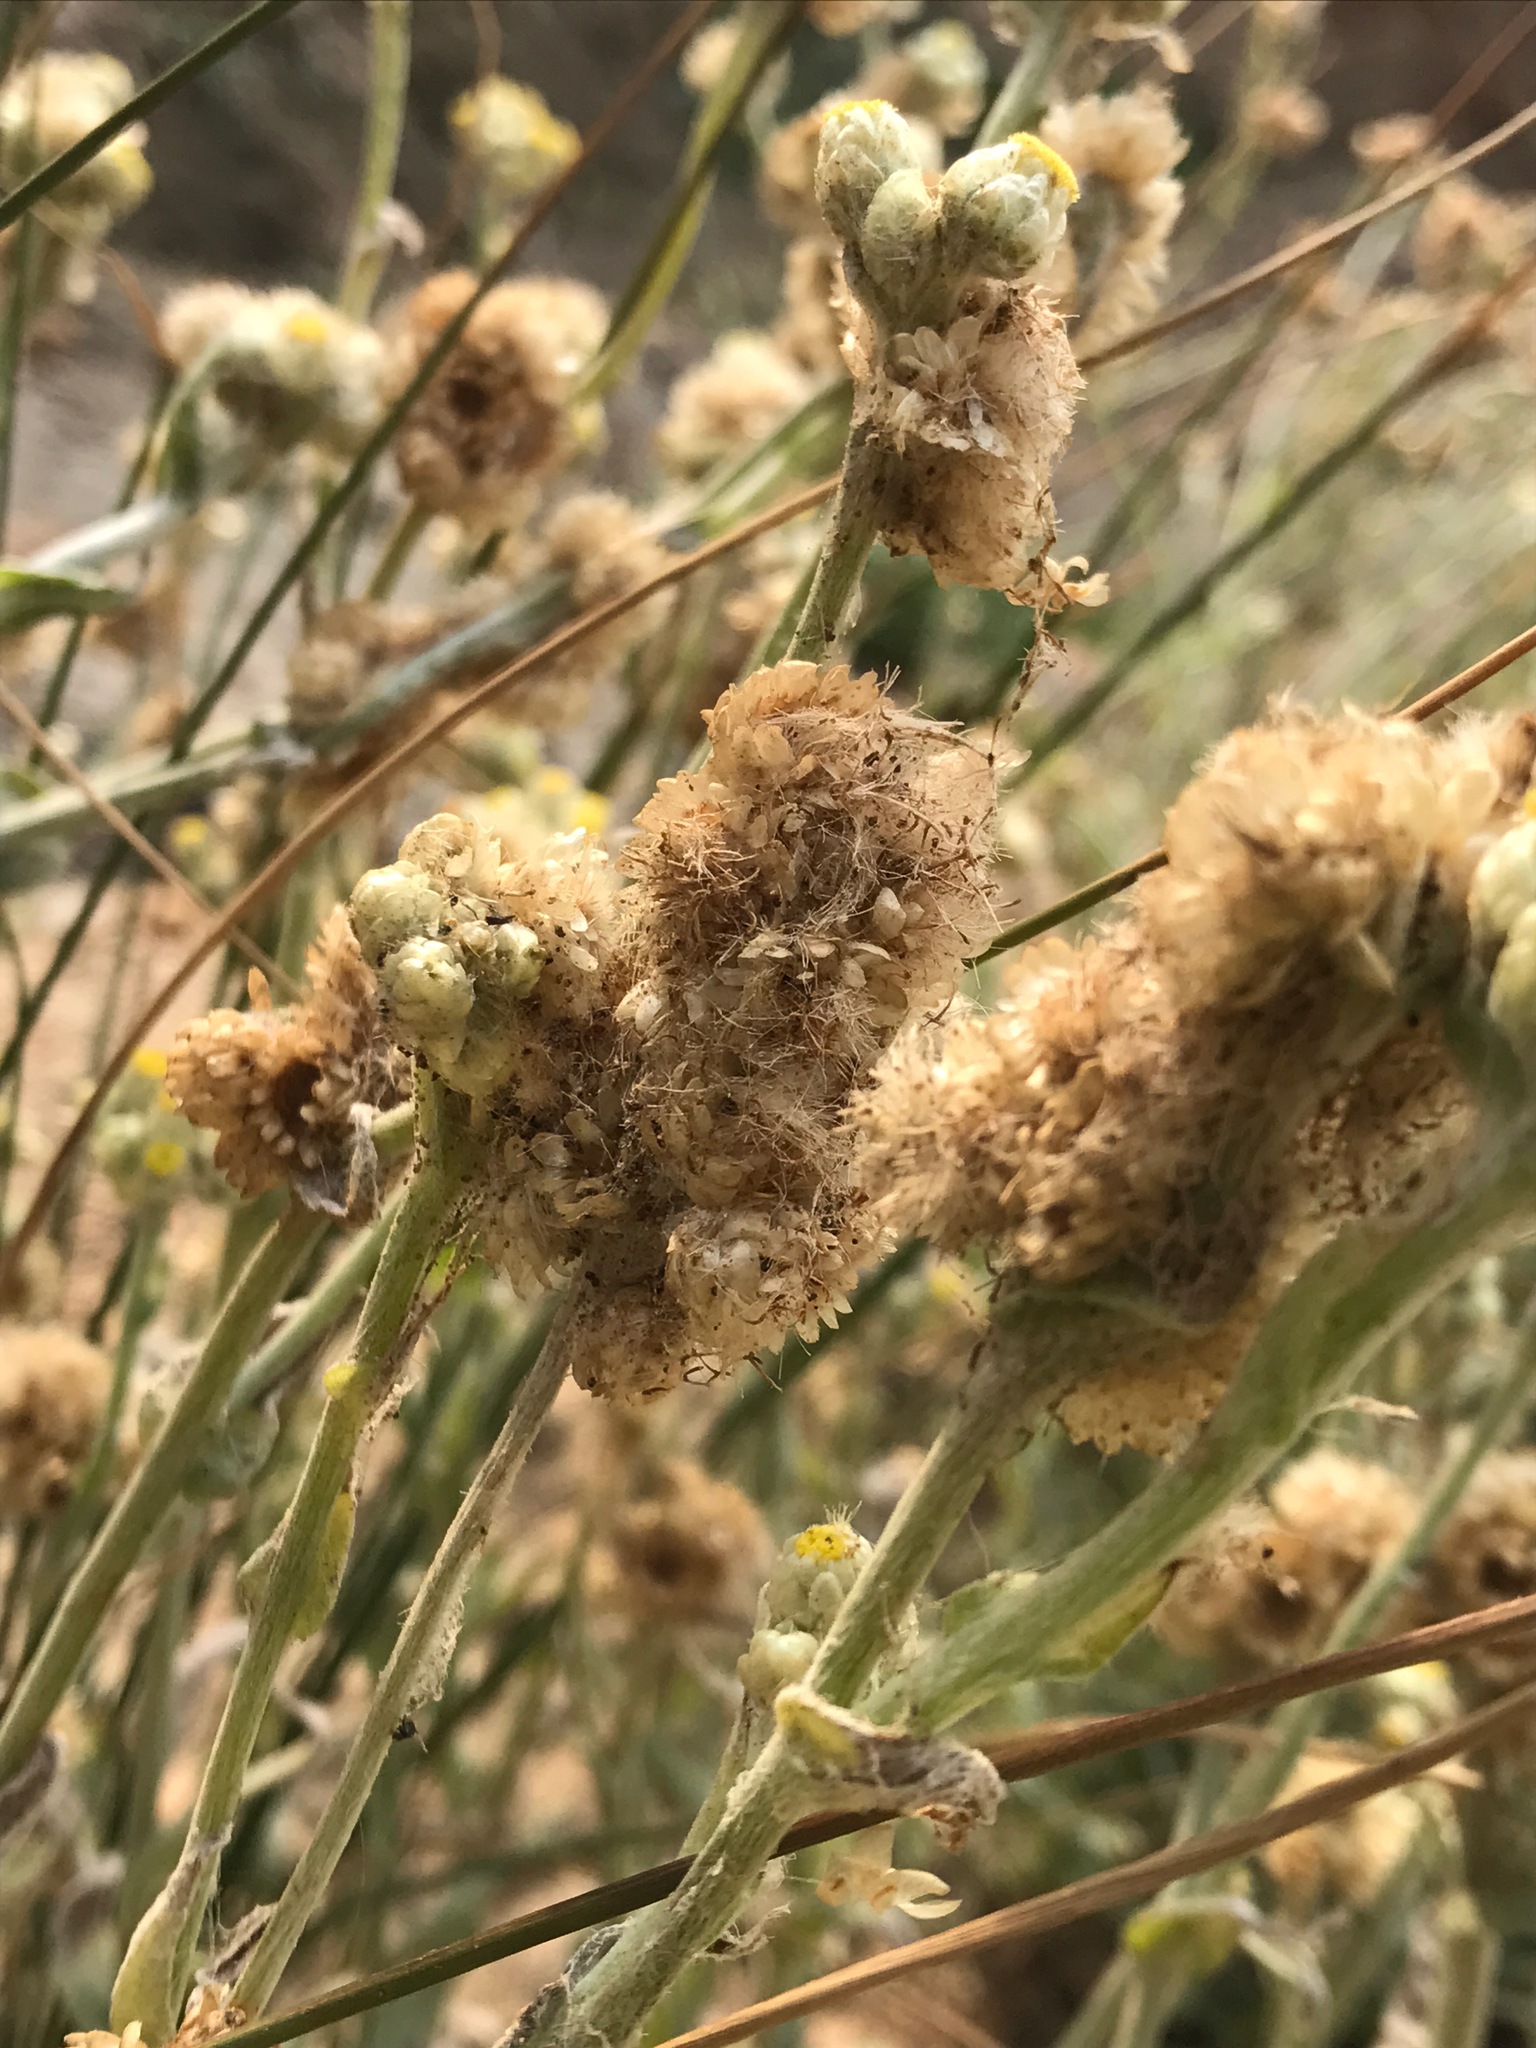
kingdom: Plantae
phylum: Tracheophyta
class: Magnoliopsida
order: Asterales
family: Asteraceae
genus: Pseudognaphalium
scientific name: Pseudognaphalium stramineum
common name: Cotton-batting-plant
